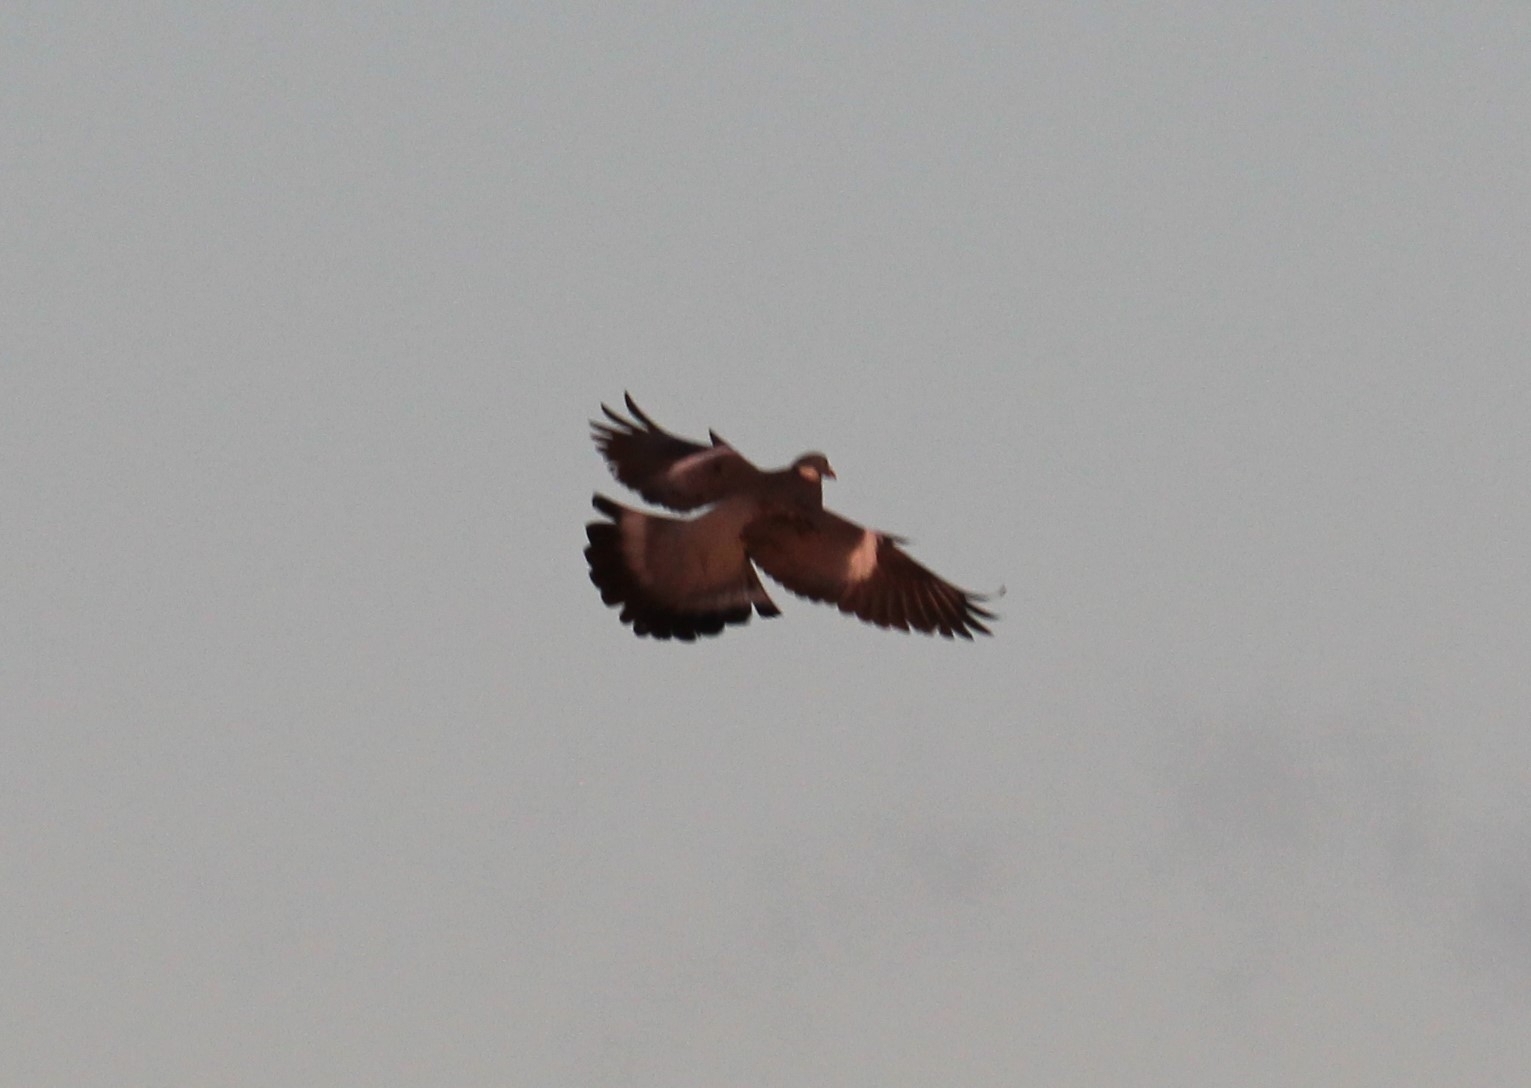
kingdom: Animalia
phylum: Chordata
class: Aves
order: Columbiformes
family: Columbidae
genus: Columba
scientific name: Columba palumbus
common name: Common wood pigeon
